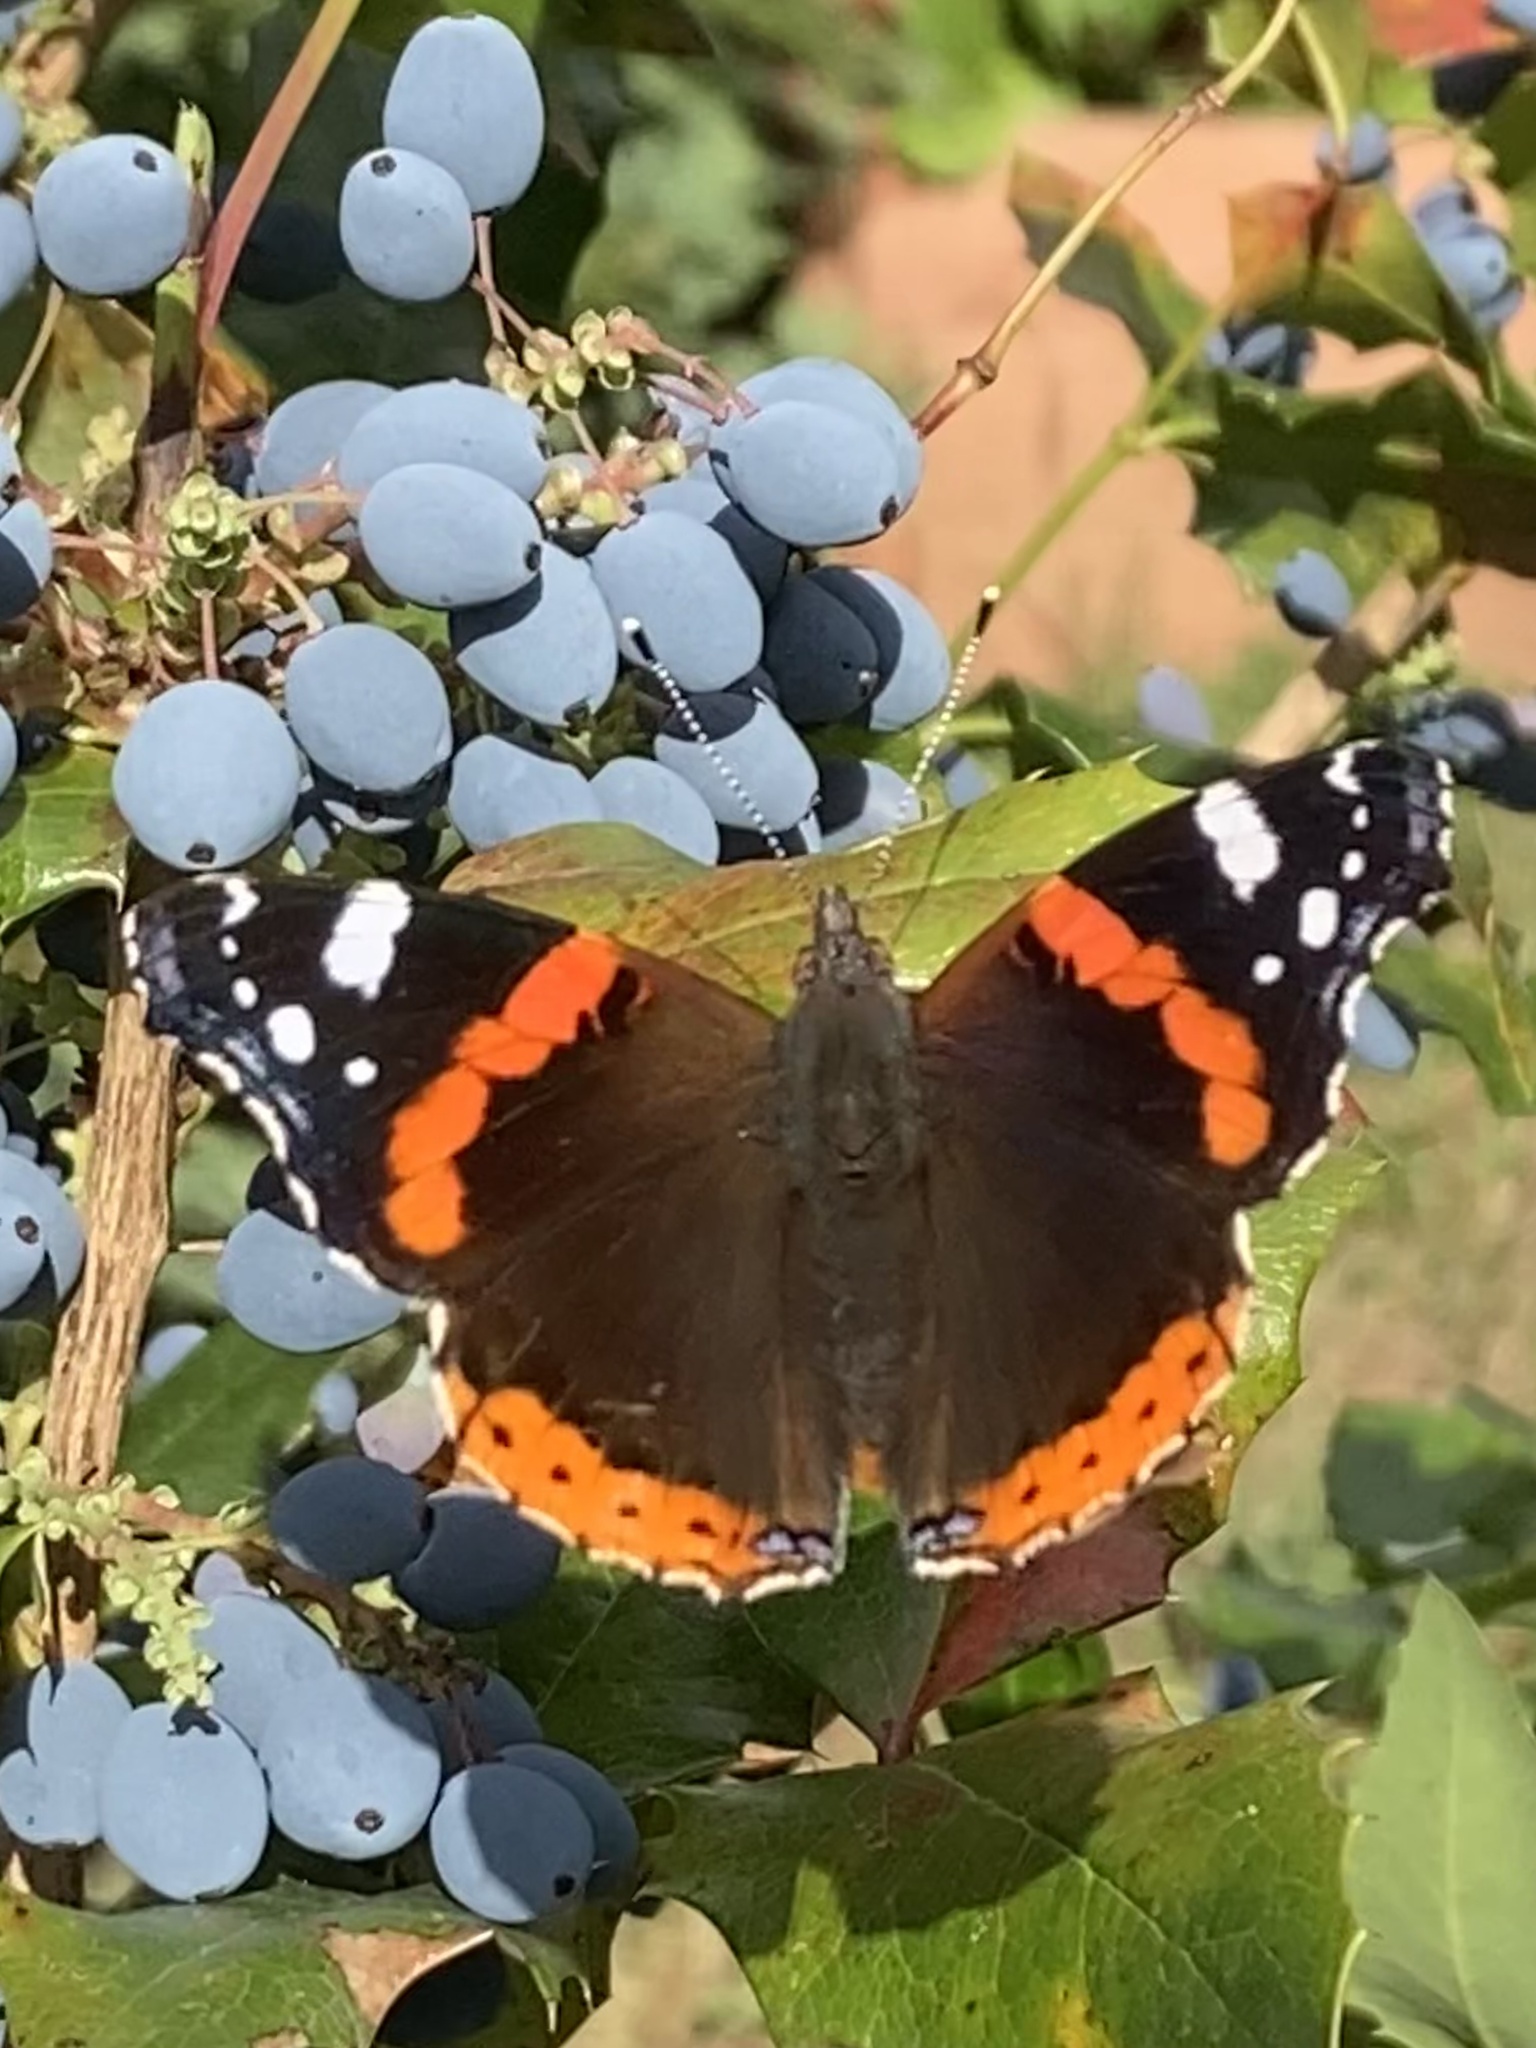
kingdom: Animalia
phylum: Arthropoda
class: Insecta
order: Lepidoptera
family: Nymphalidae
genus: Vanessa
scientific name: Vanessa atalanta
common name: Red admiral
